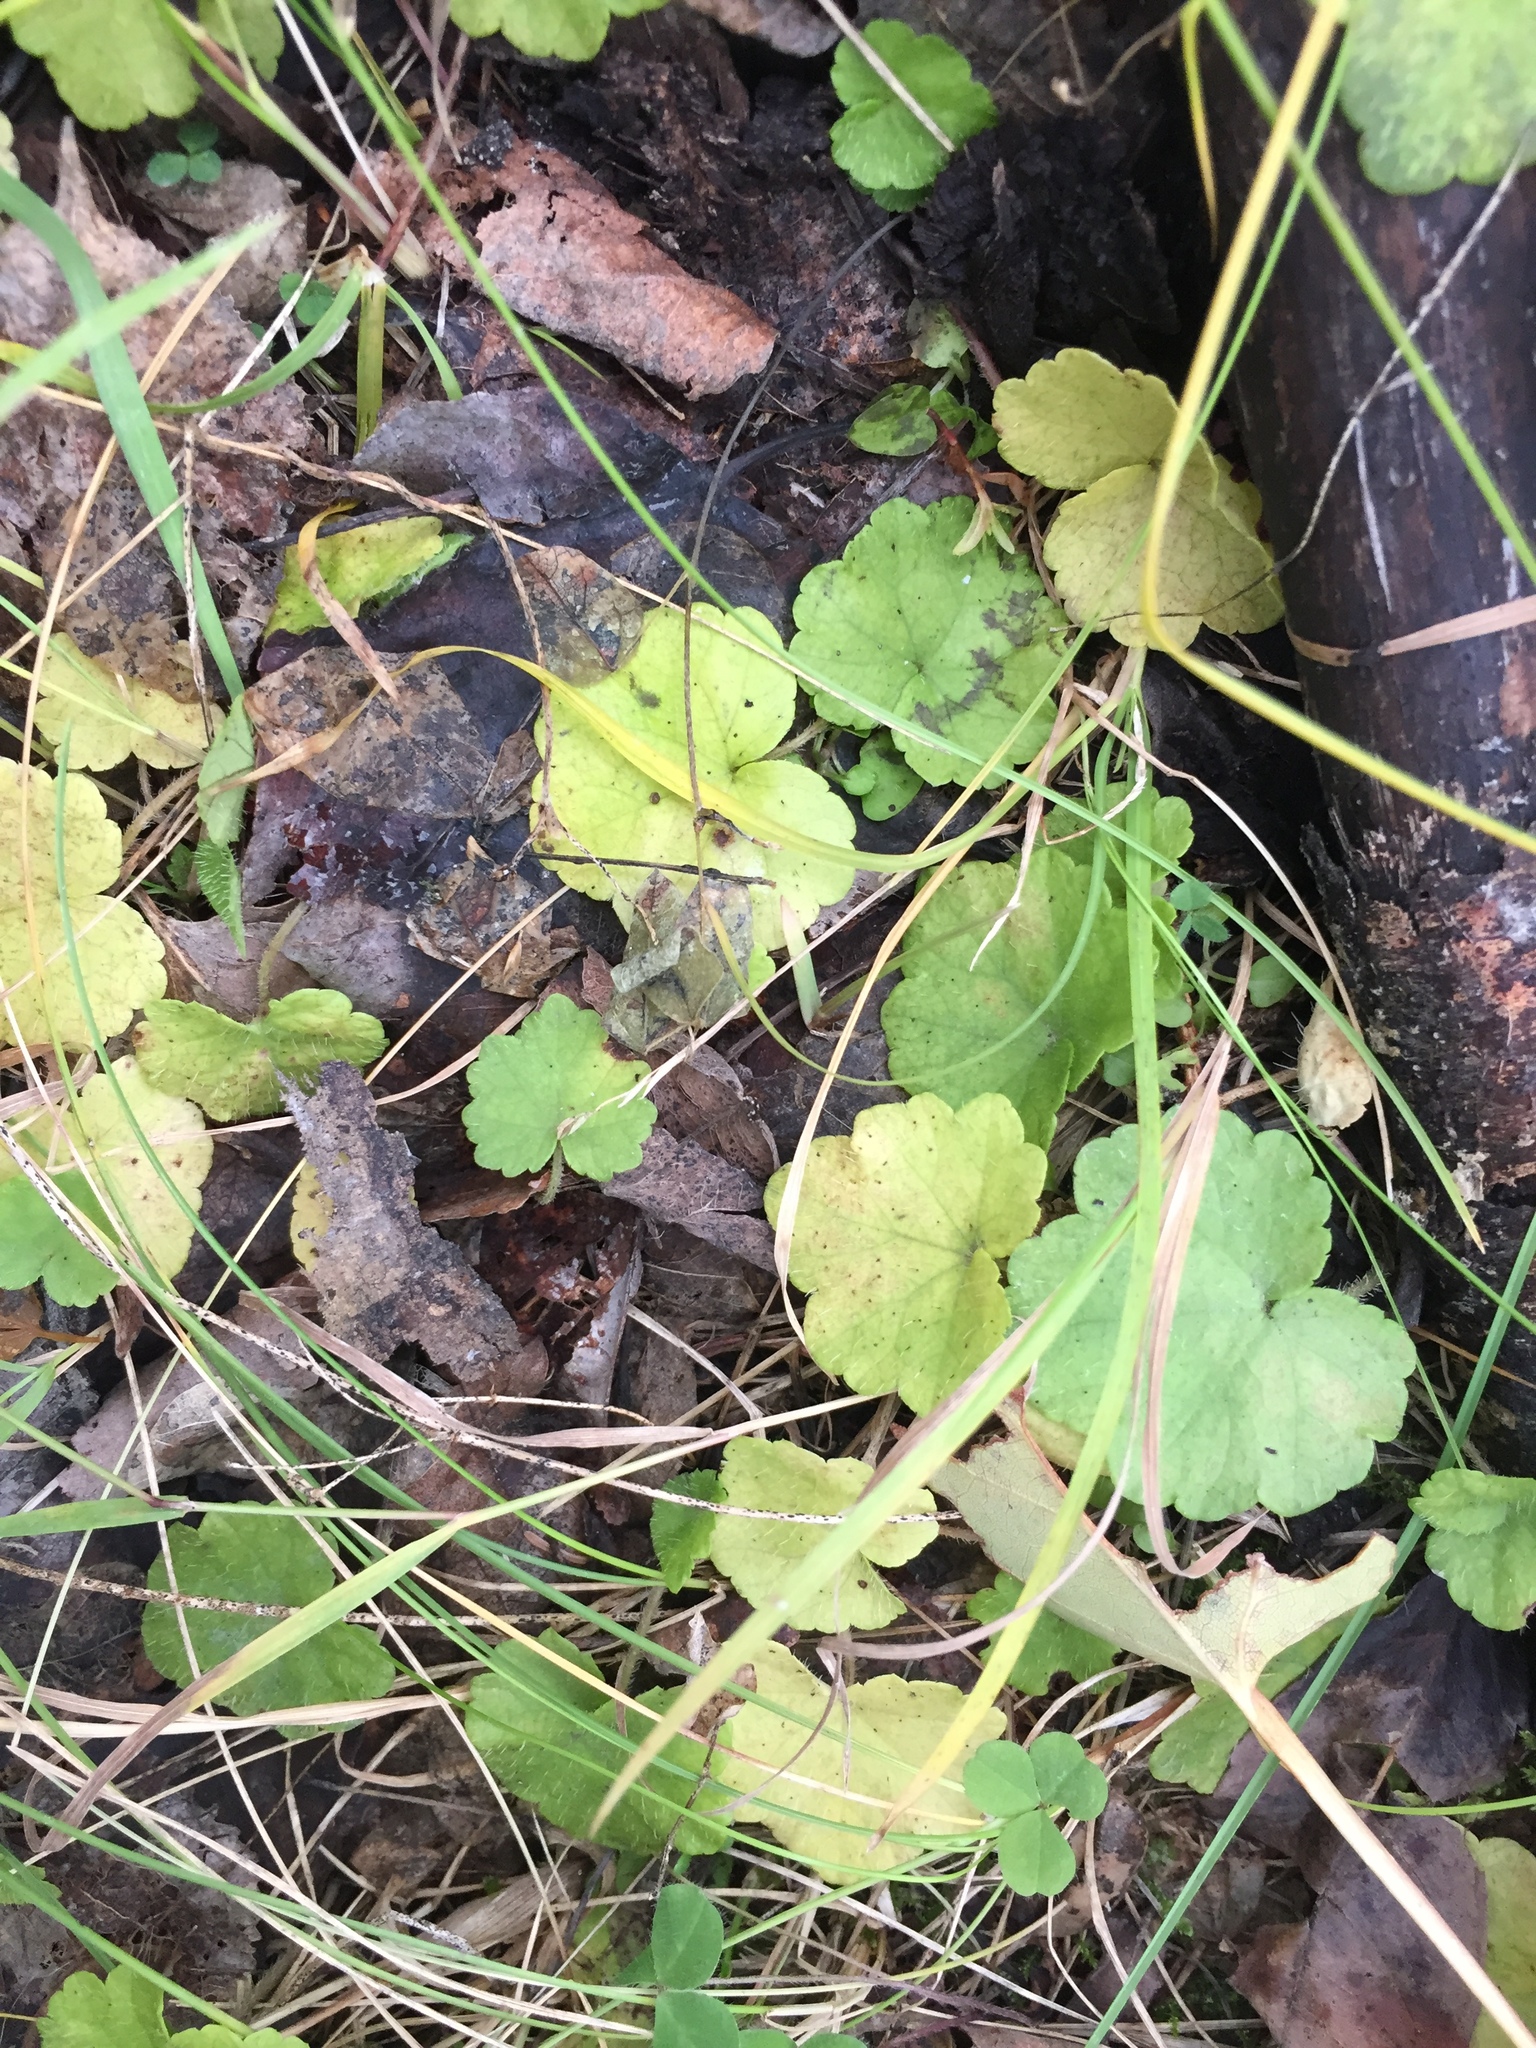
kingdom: Plantae
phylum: Tracheophyta
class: Magnoliopsida
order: Saxifragales
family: Saxifragaceae
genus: Mitella
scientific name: Mitella nuda
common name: Bare-stemmed bishop's-cap
